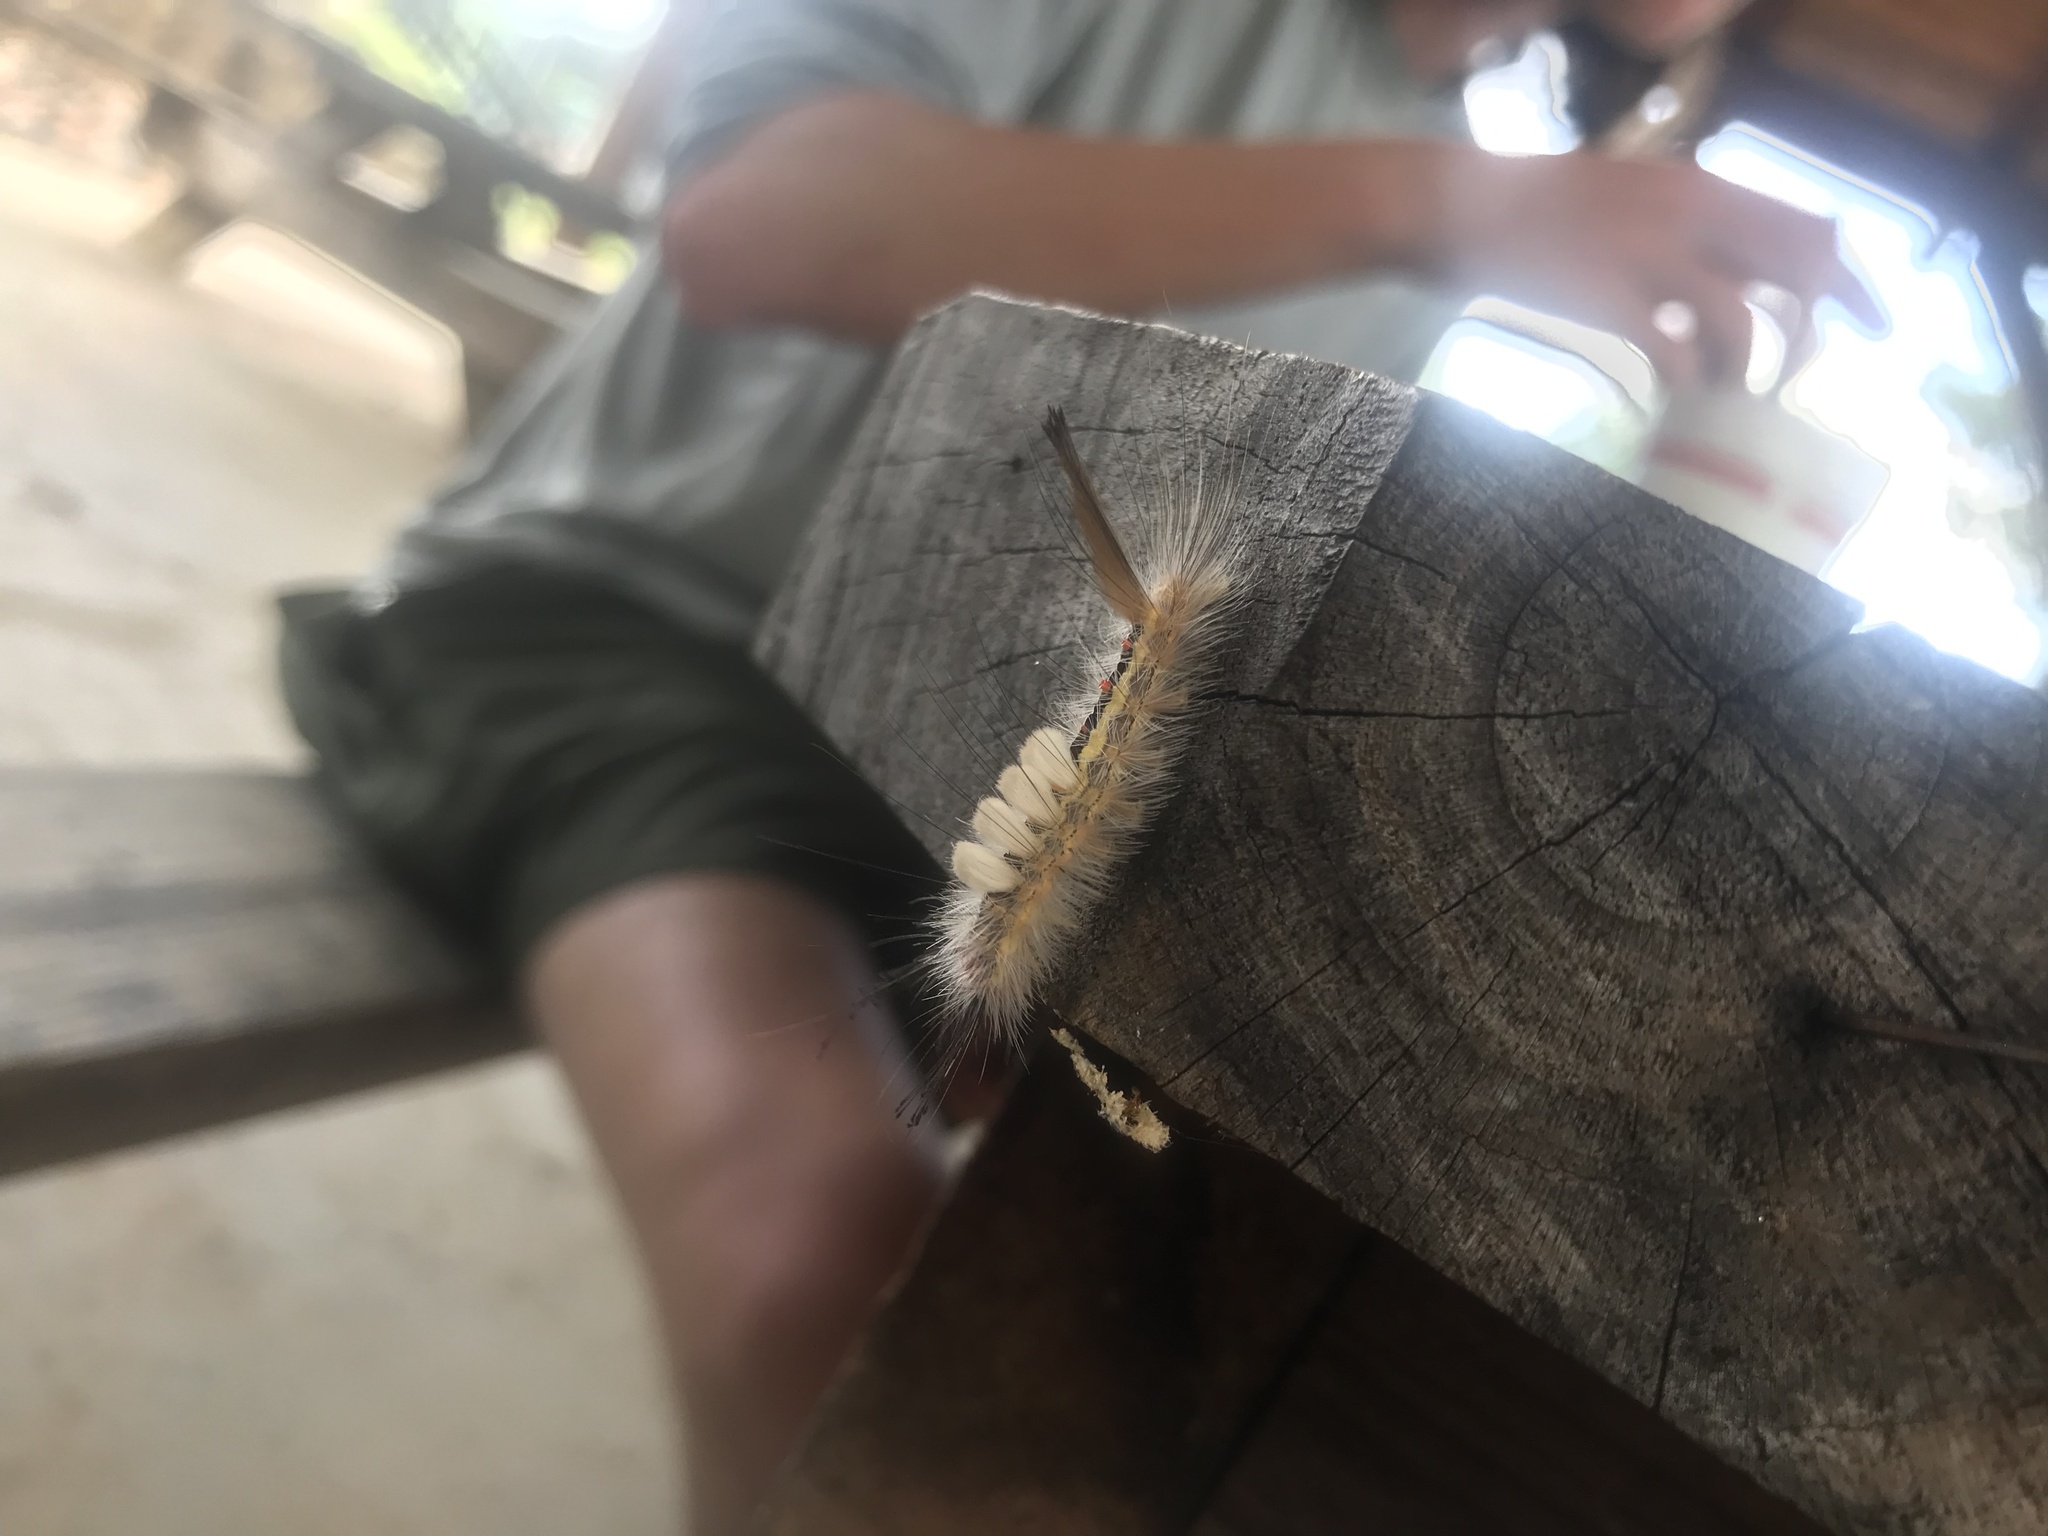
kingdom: Animalia
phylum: Arthropoda
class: Insecta
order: Lepidoptera
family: Erebidae
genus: Orgyia
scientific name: Orgyia leucostigma
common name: White-marked tussock moth
